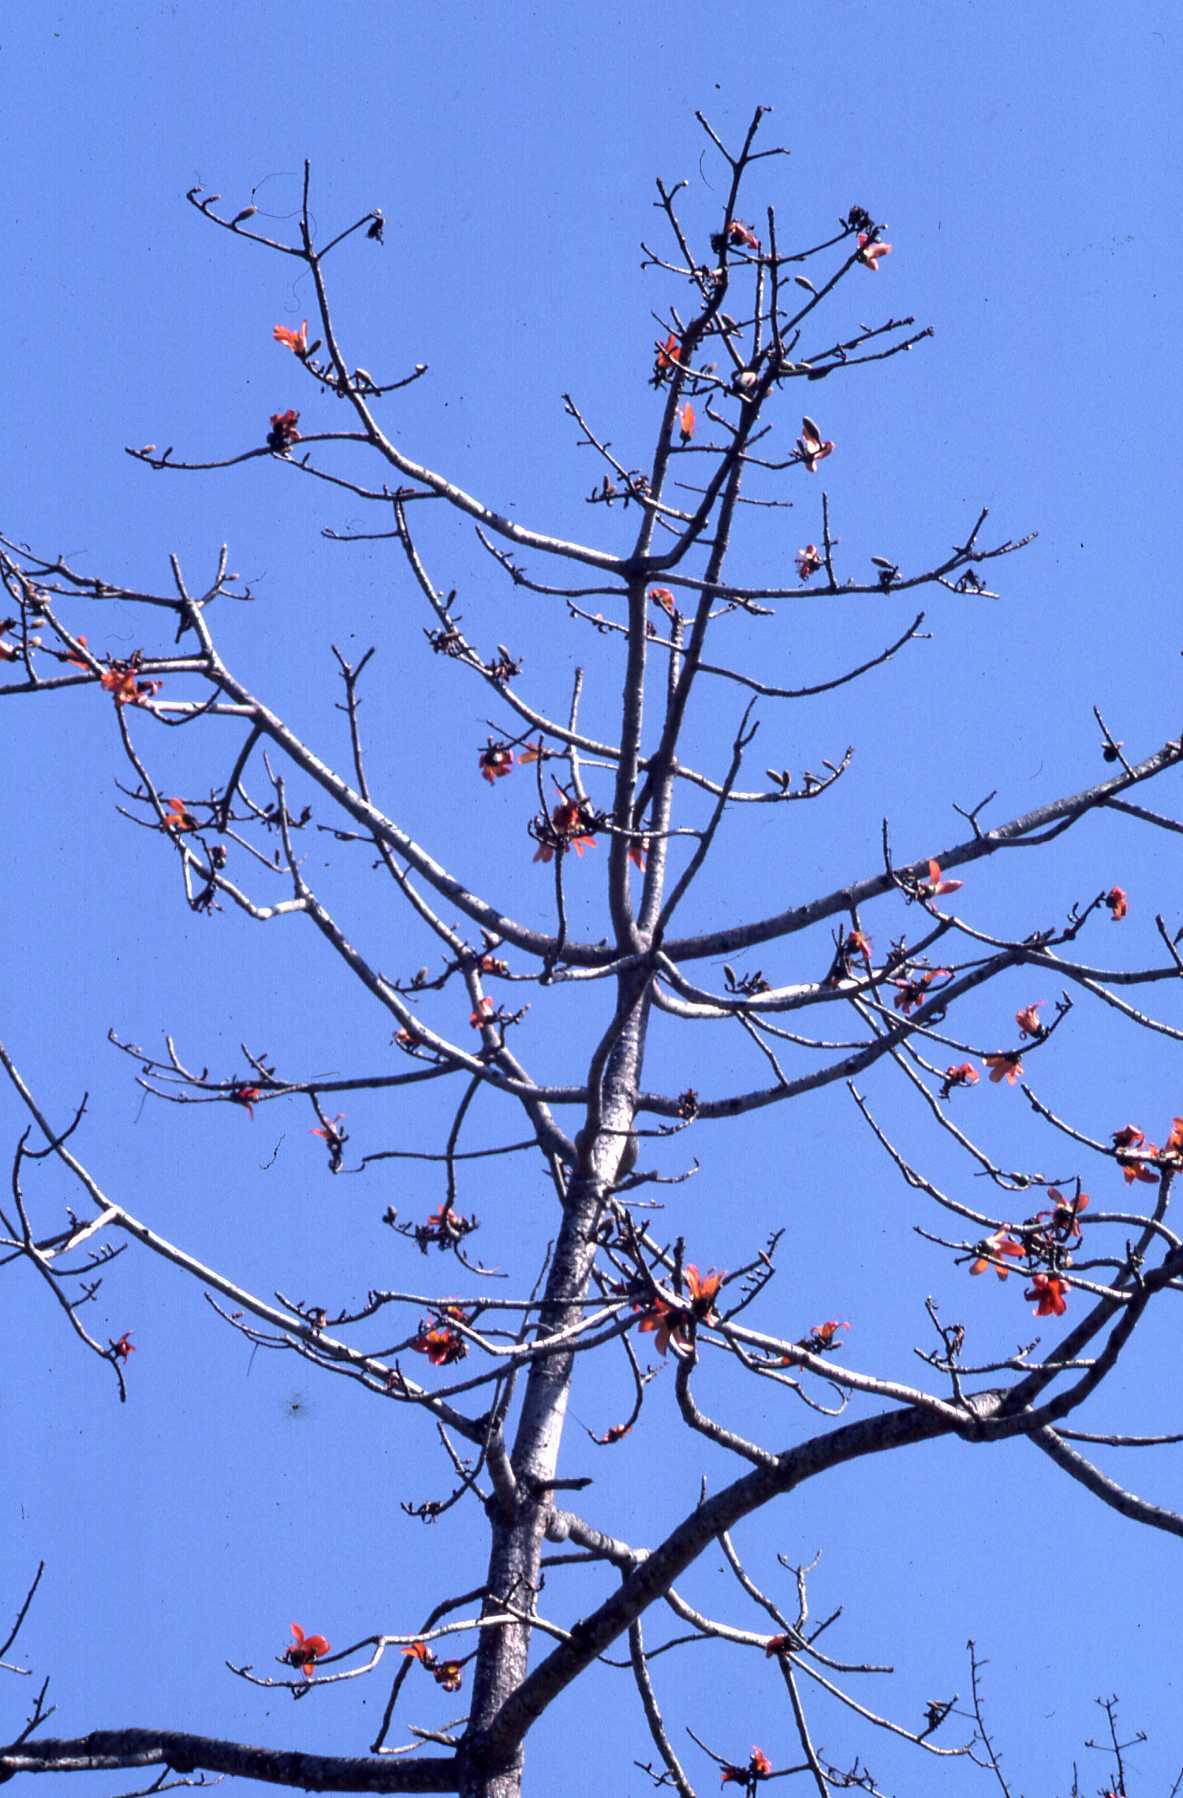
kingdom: Plantae
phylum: Tracheophyta
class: Magnoliopsida
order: Malvales
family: Malvaceae
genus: Bombax
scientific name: Bombax ceiba
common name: Northern-cottonwood
